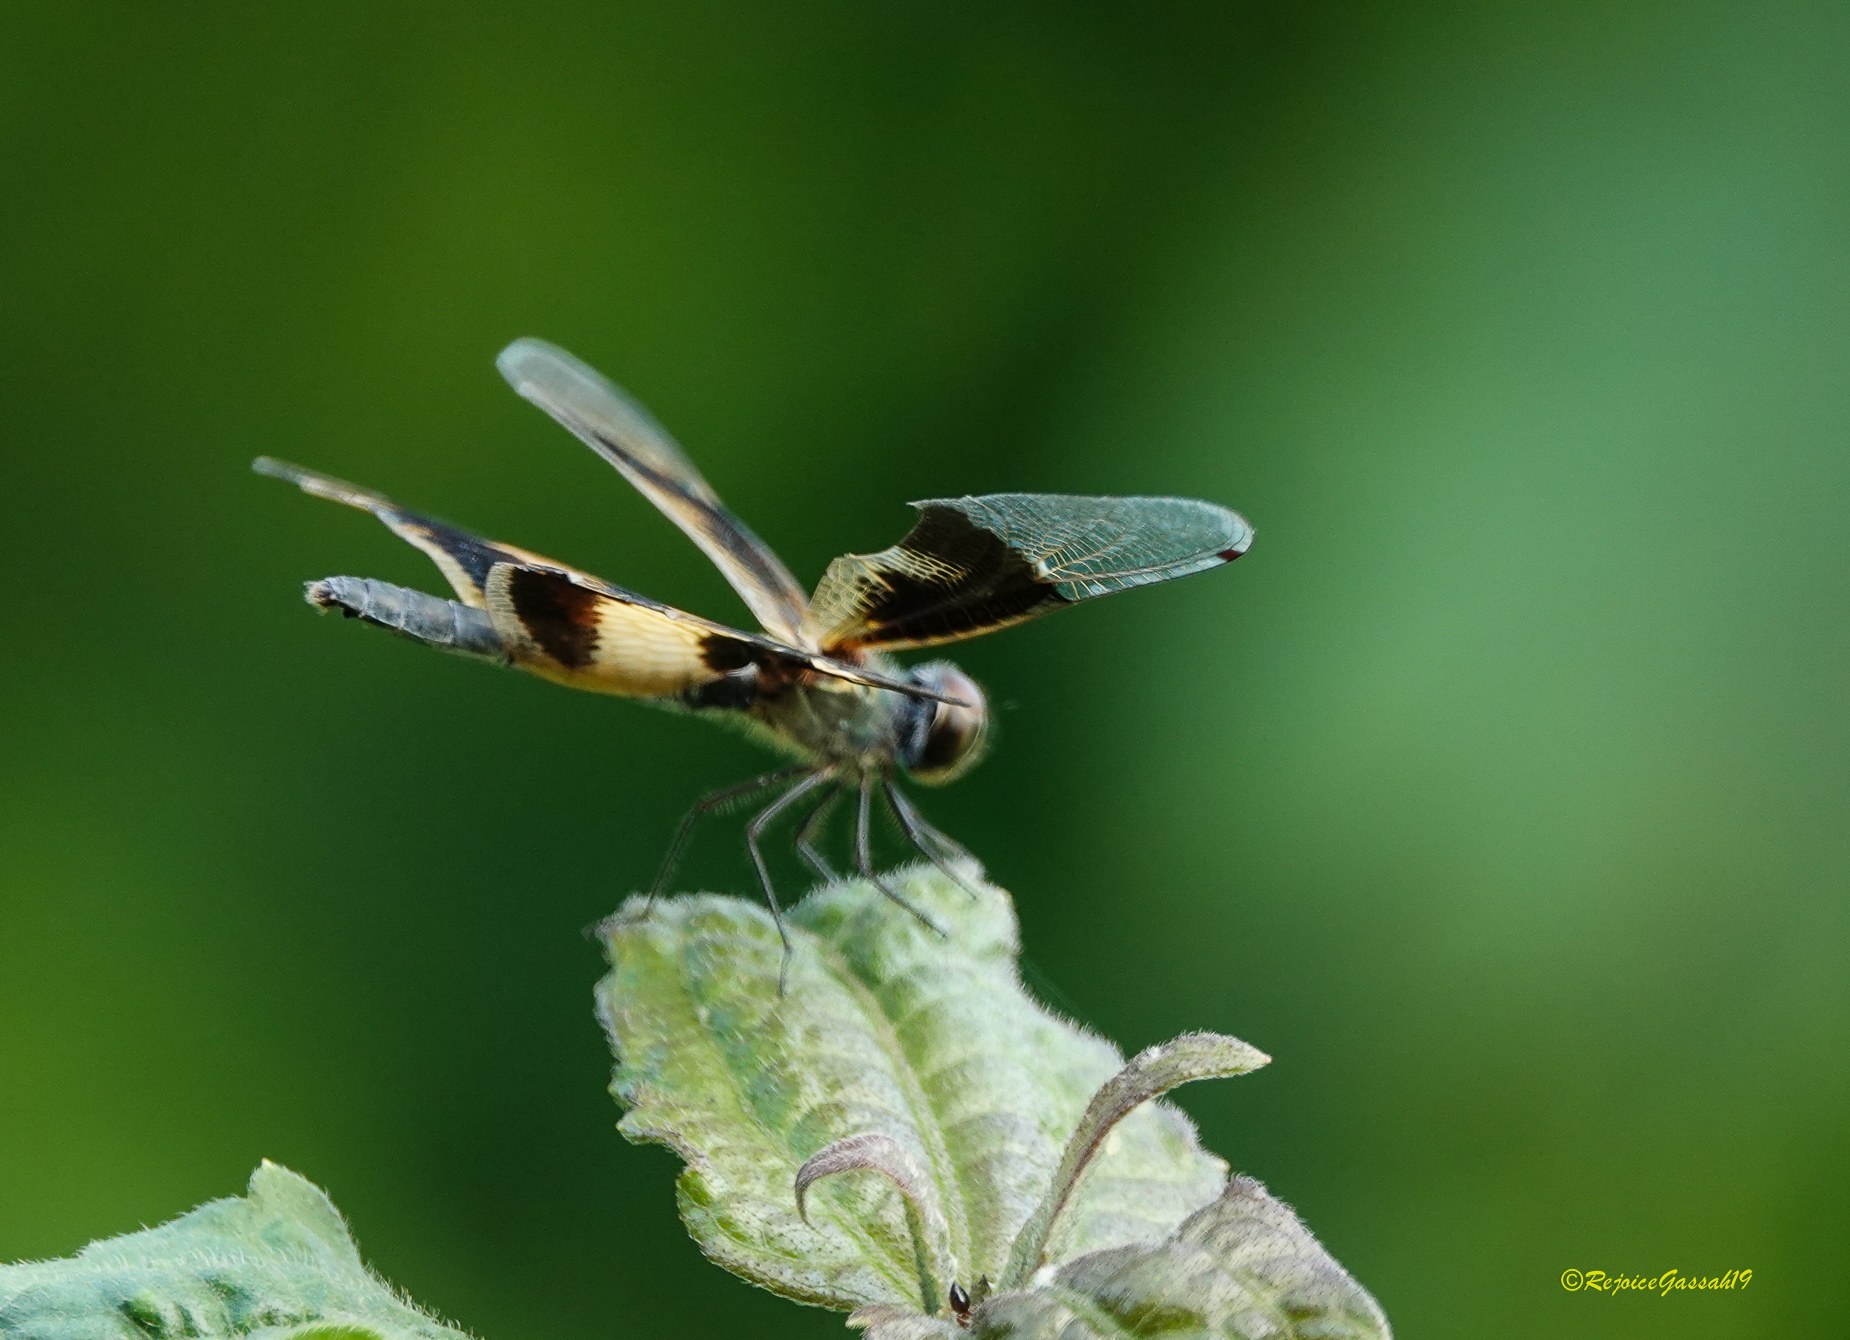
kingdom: Animalia
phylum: Arthropoda
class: Insecta
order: Odonata
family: Libellulidae
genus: Rhyothemis
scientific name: Rhyothemis variegata
